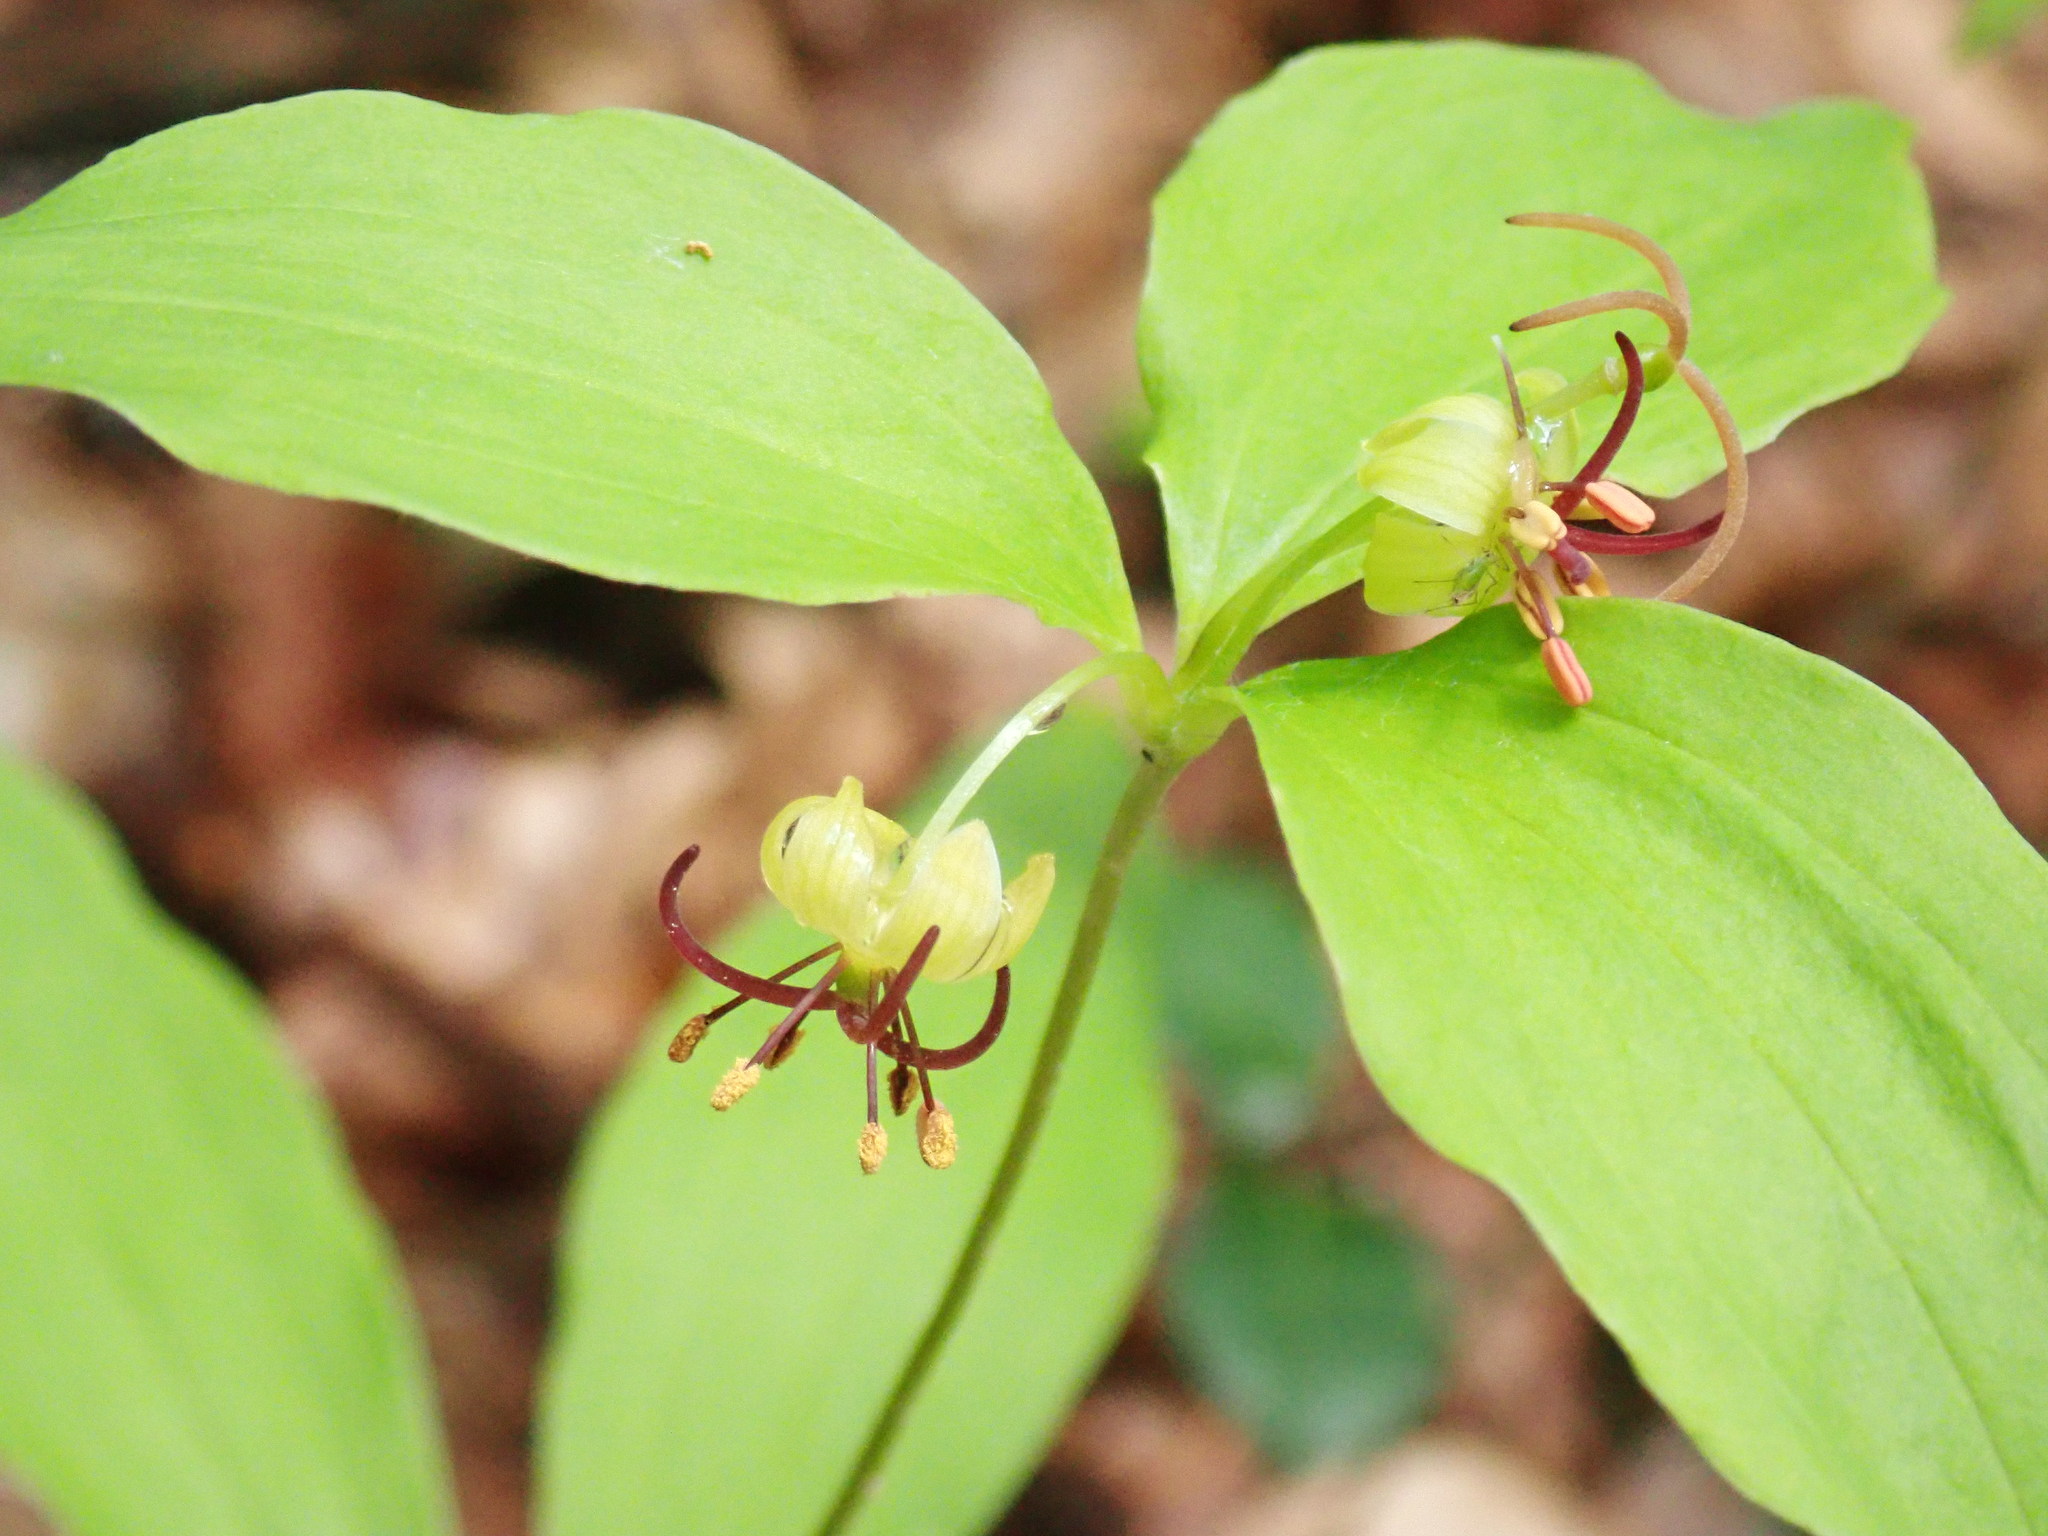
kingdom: Plantae
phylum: Tracheophyta
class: Liliopsida
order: Liliales
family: Liliaceae
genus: Medeola
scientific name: Medeola virginiana
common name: Indian cucumber-root
